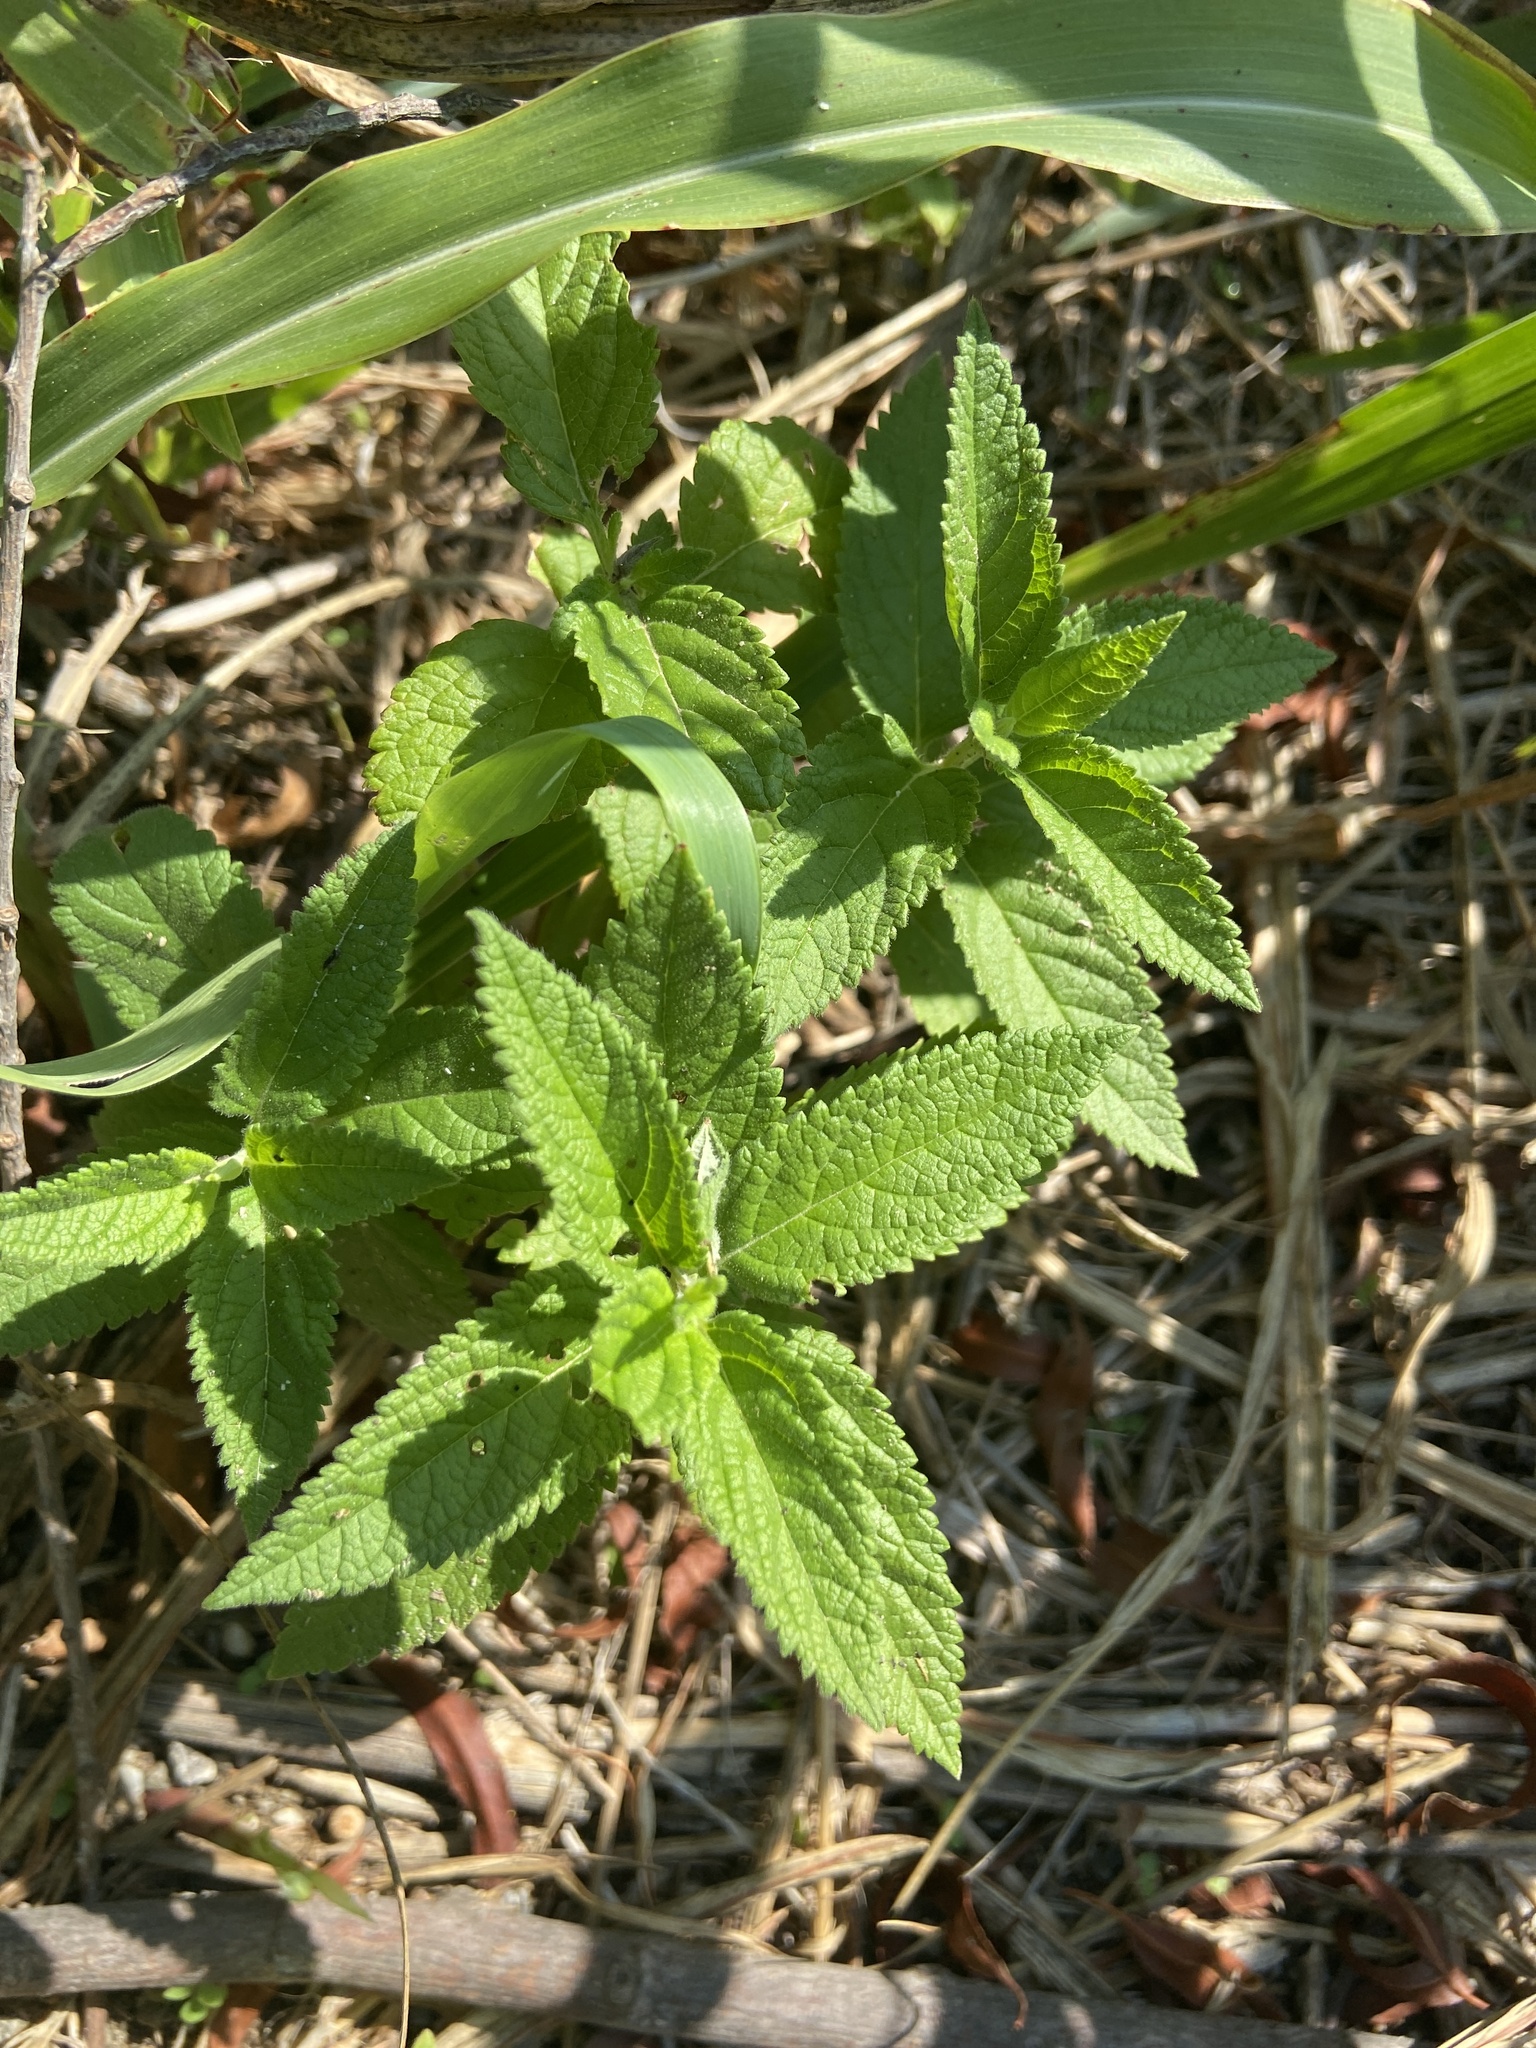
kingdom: Plantae
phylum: Tracheophyta
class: Magnoliopsida
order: Lamiales
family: Lamiaceae
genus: Teucrium
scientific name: Teucrium canadense
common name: American germander
